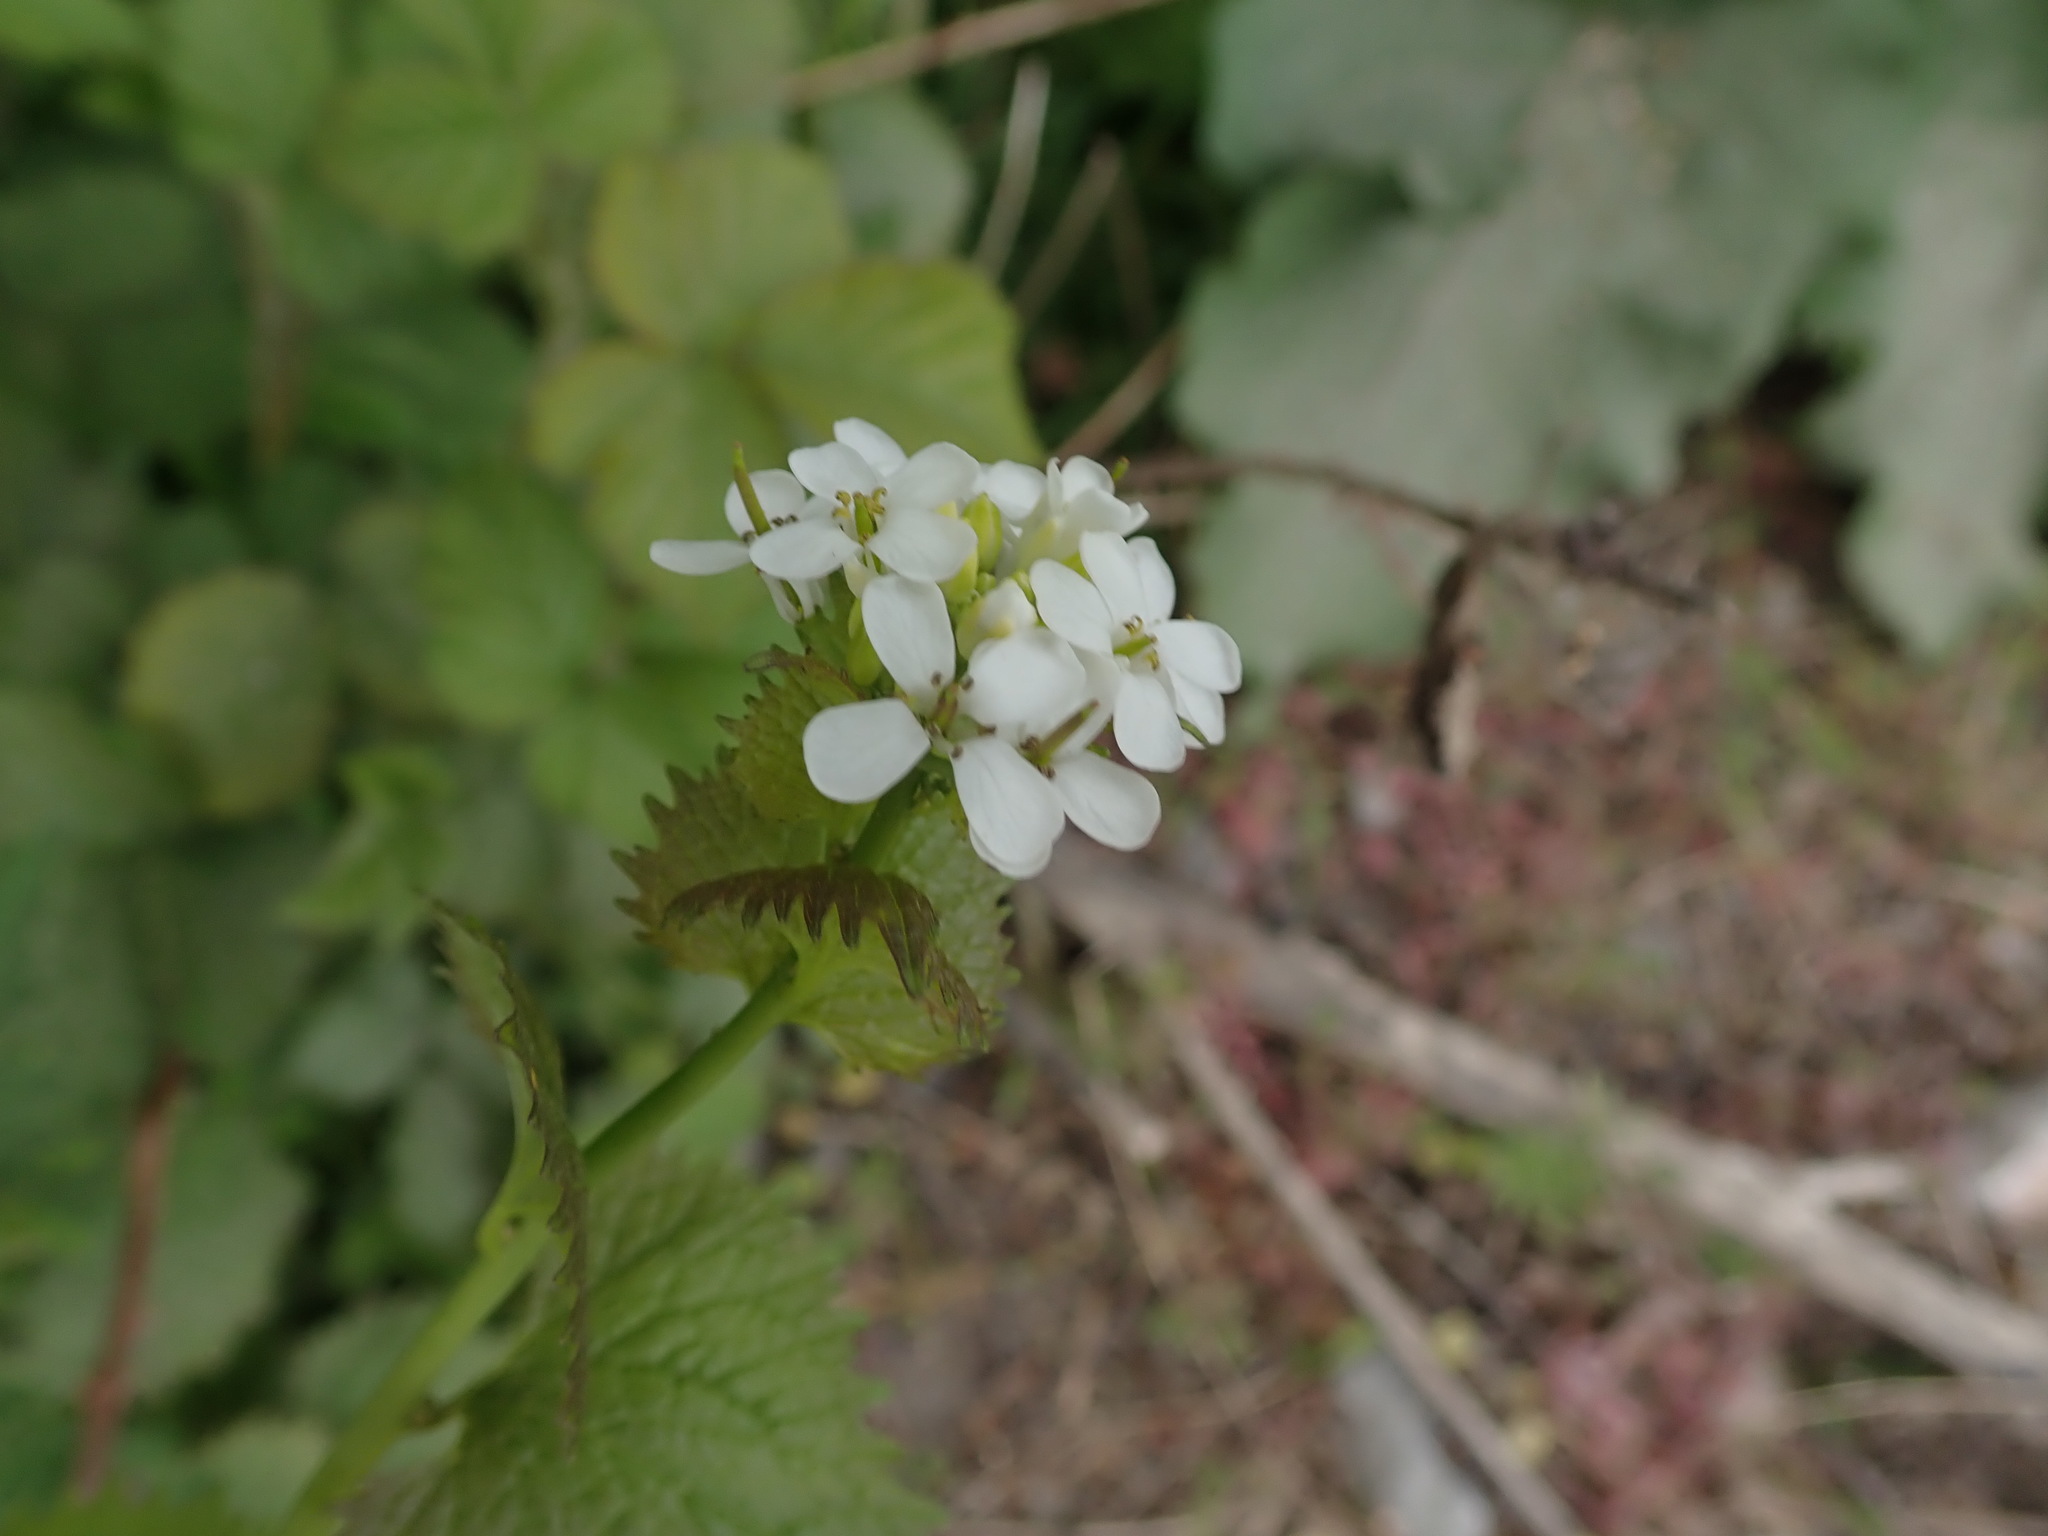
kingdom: Plantae
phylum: Tracheophyta
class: Magnoliopsida
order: Brassicales
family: Brassicaceae
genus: Alliaria
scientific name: Alliaria petiolata
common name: Garlic mustard
